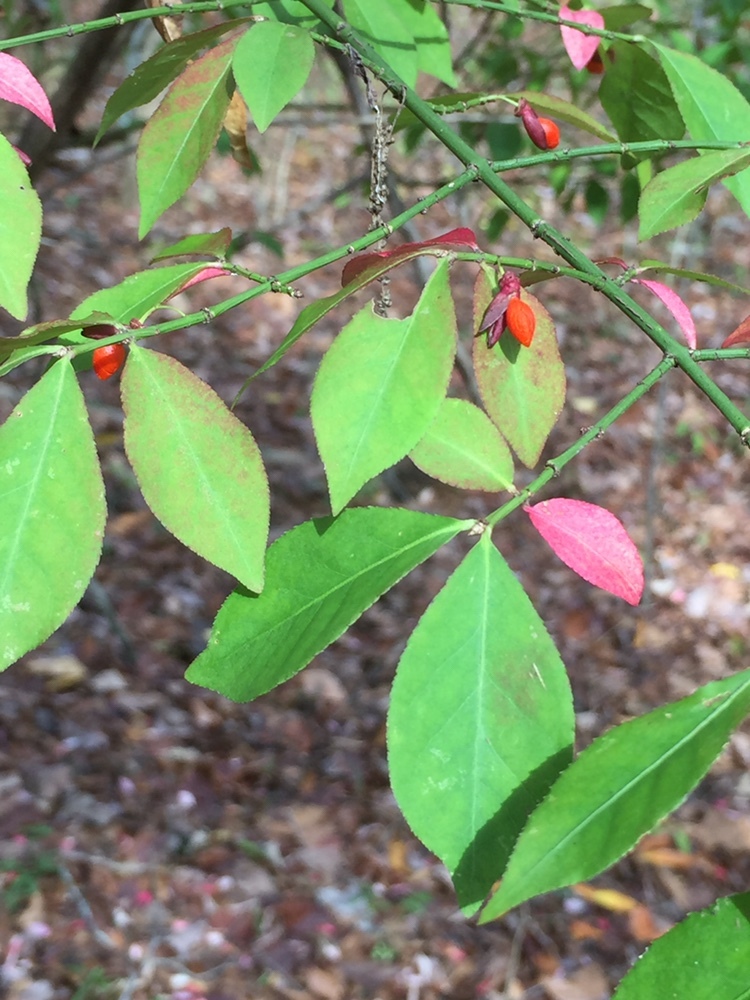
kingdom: Plantae
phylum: Tracheophyta
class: Magnoliopsida
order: Celastrales
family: Celastraceae
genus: Euonymus
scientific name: Euonymus alatus
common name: Winged euonymus
